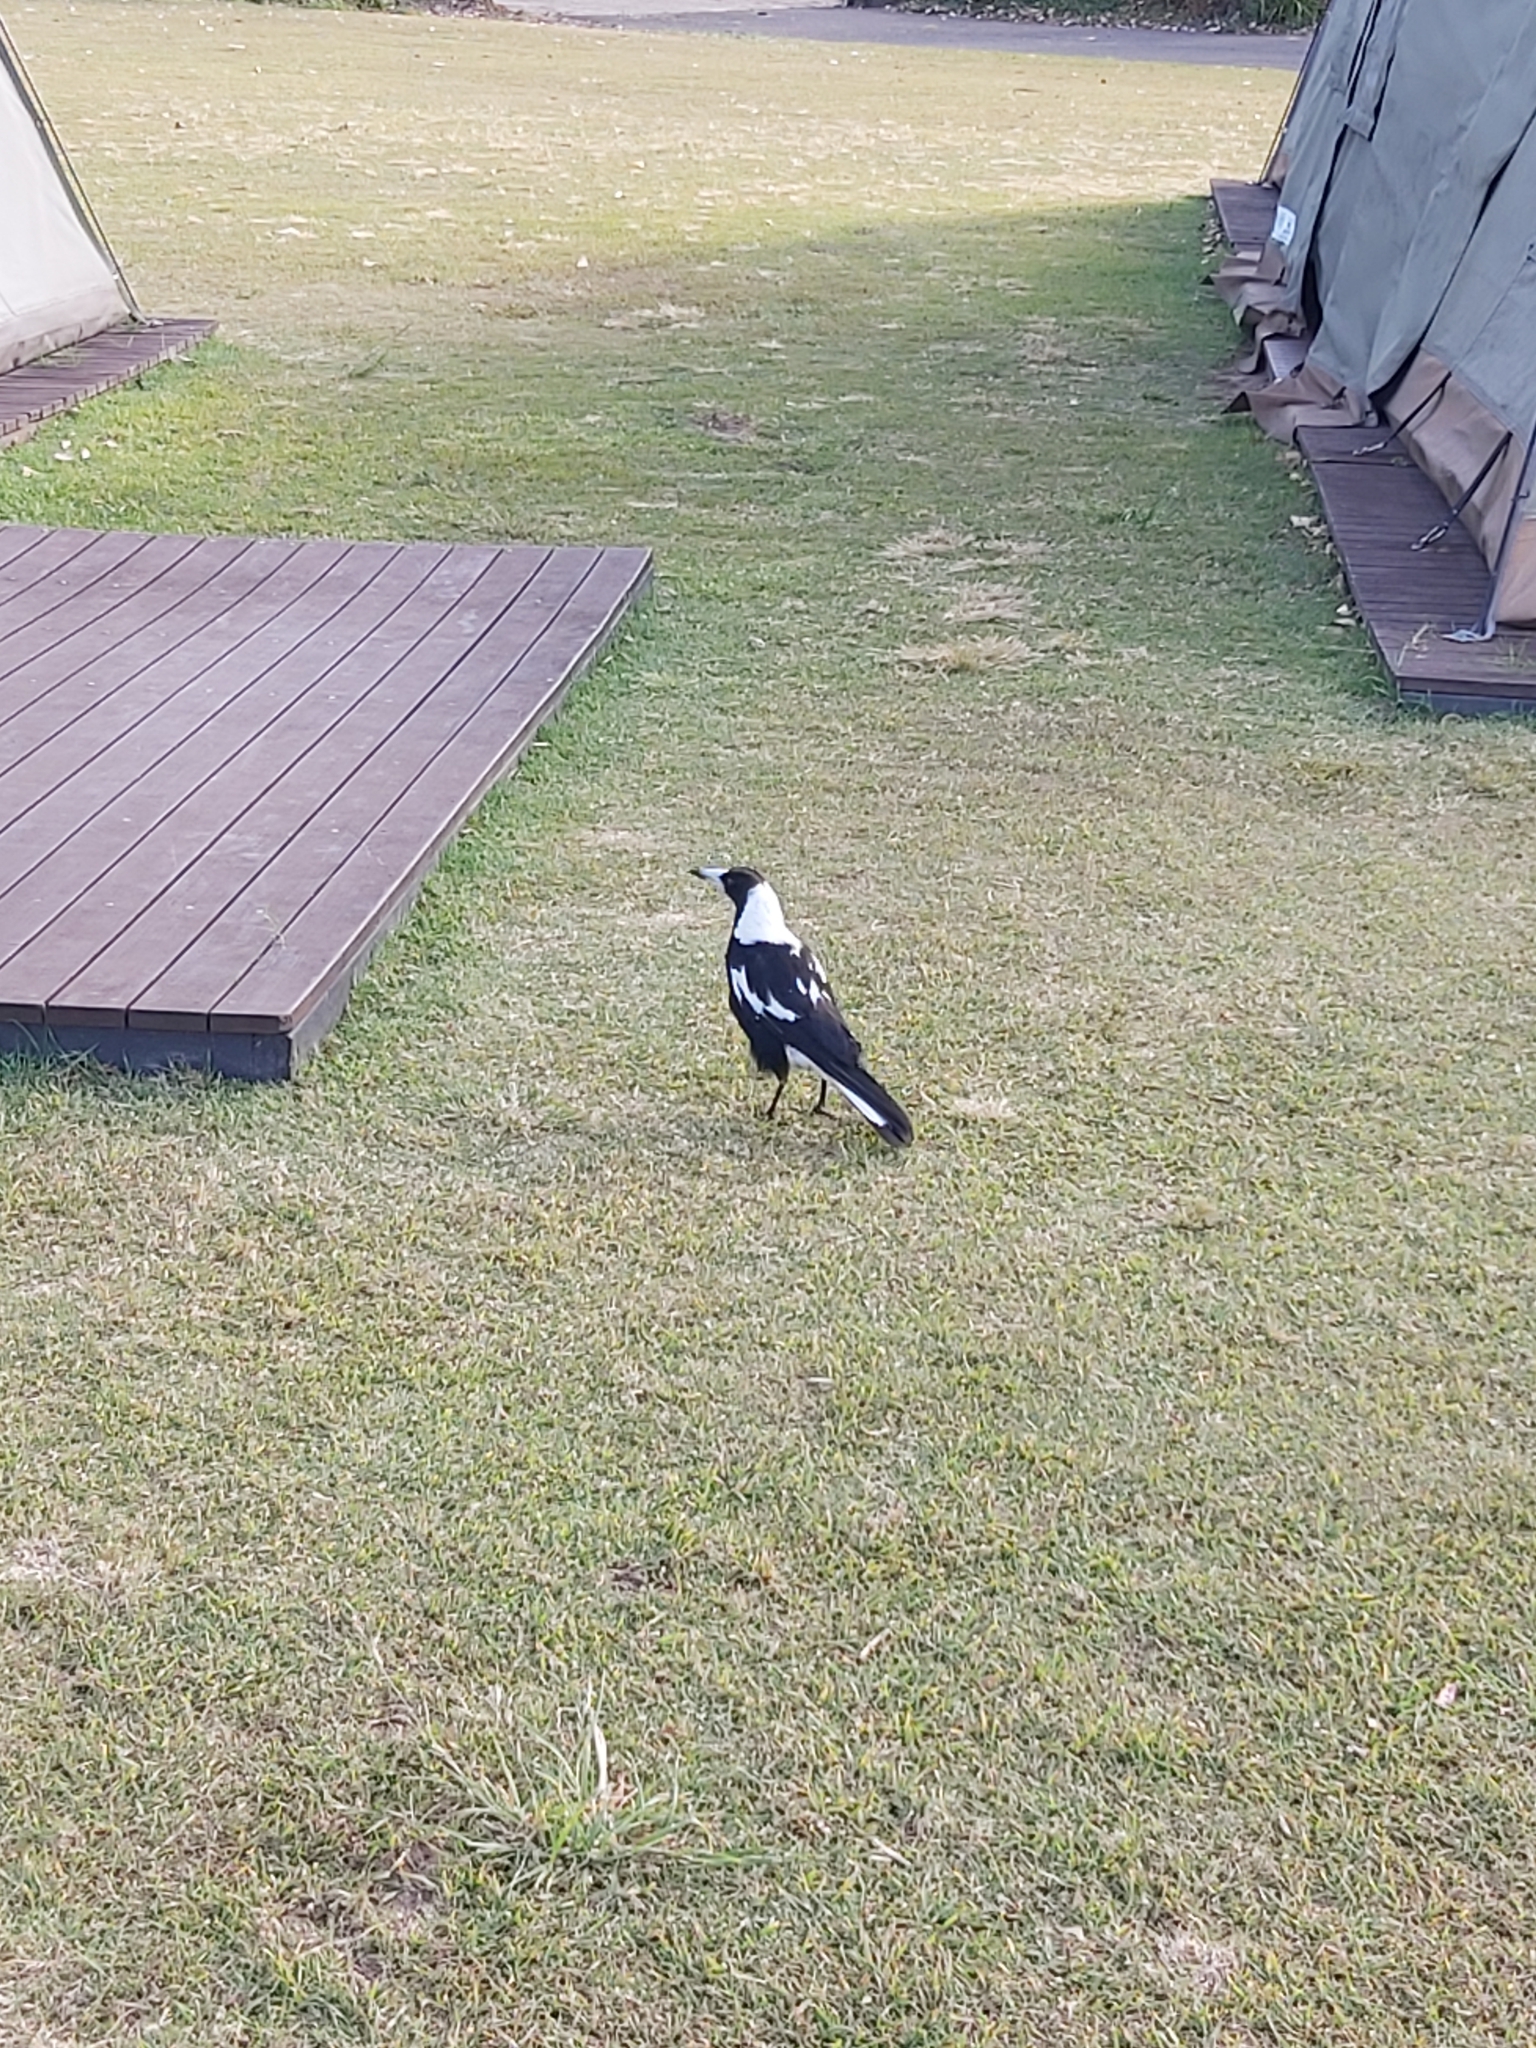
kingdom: Animalia
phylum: Chordata
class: Aves
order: Passeriformes
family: Cracticidae
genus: Gymnorhina
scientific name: Gymnorhina tibicen
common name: Australian magpie
